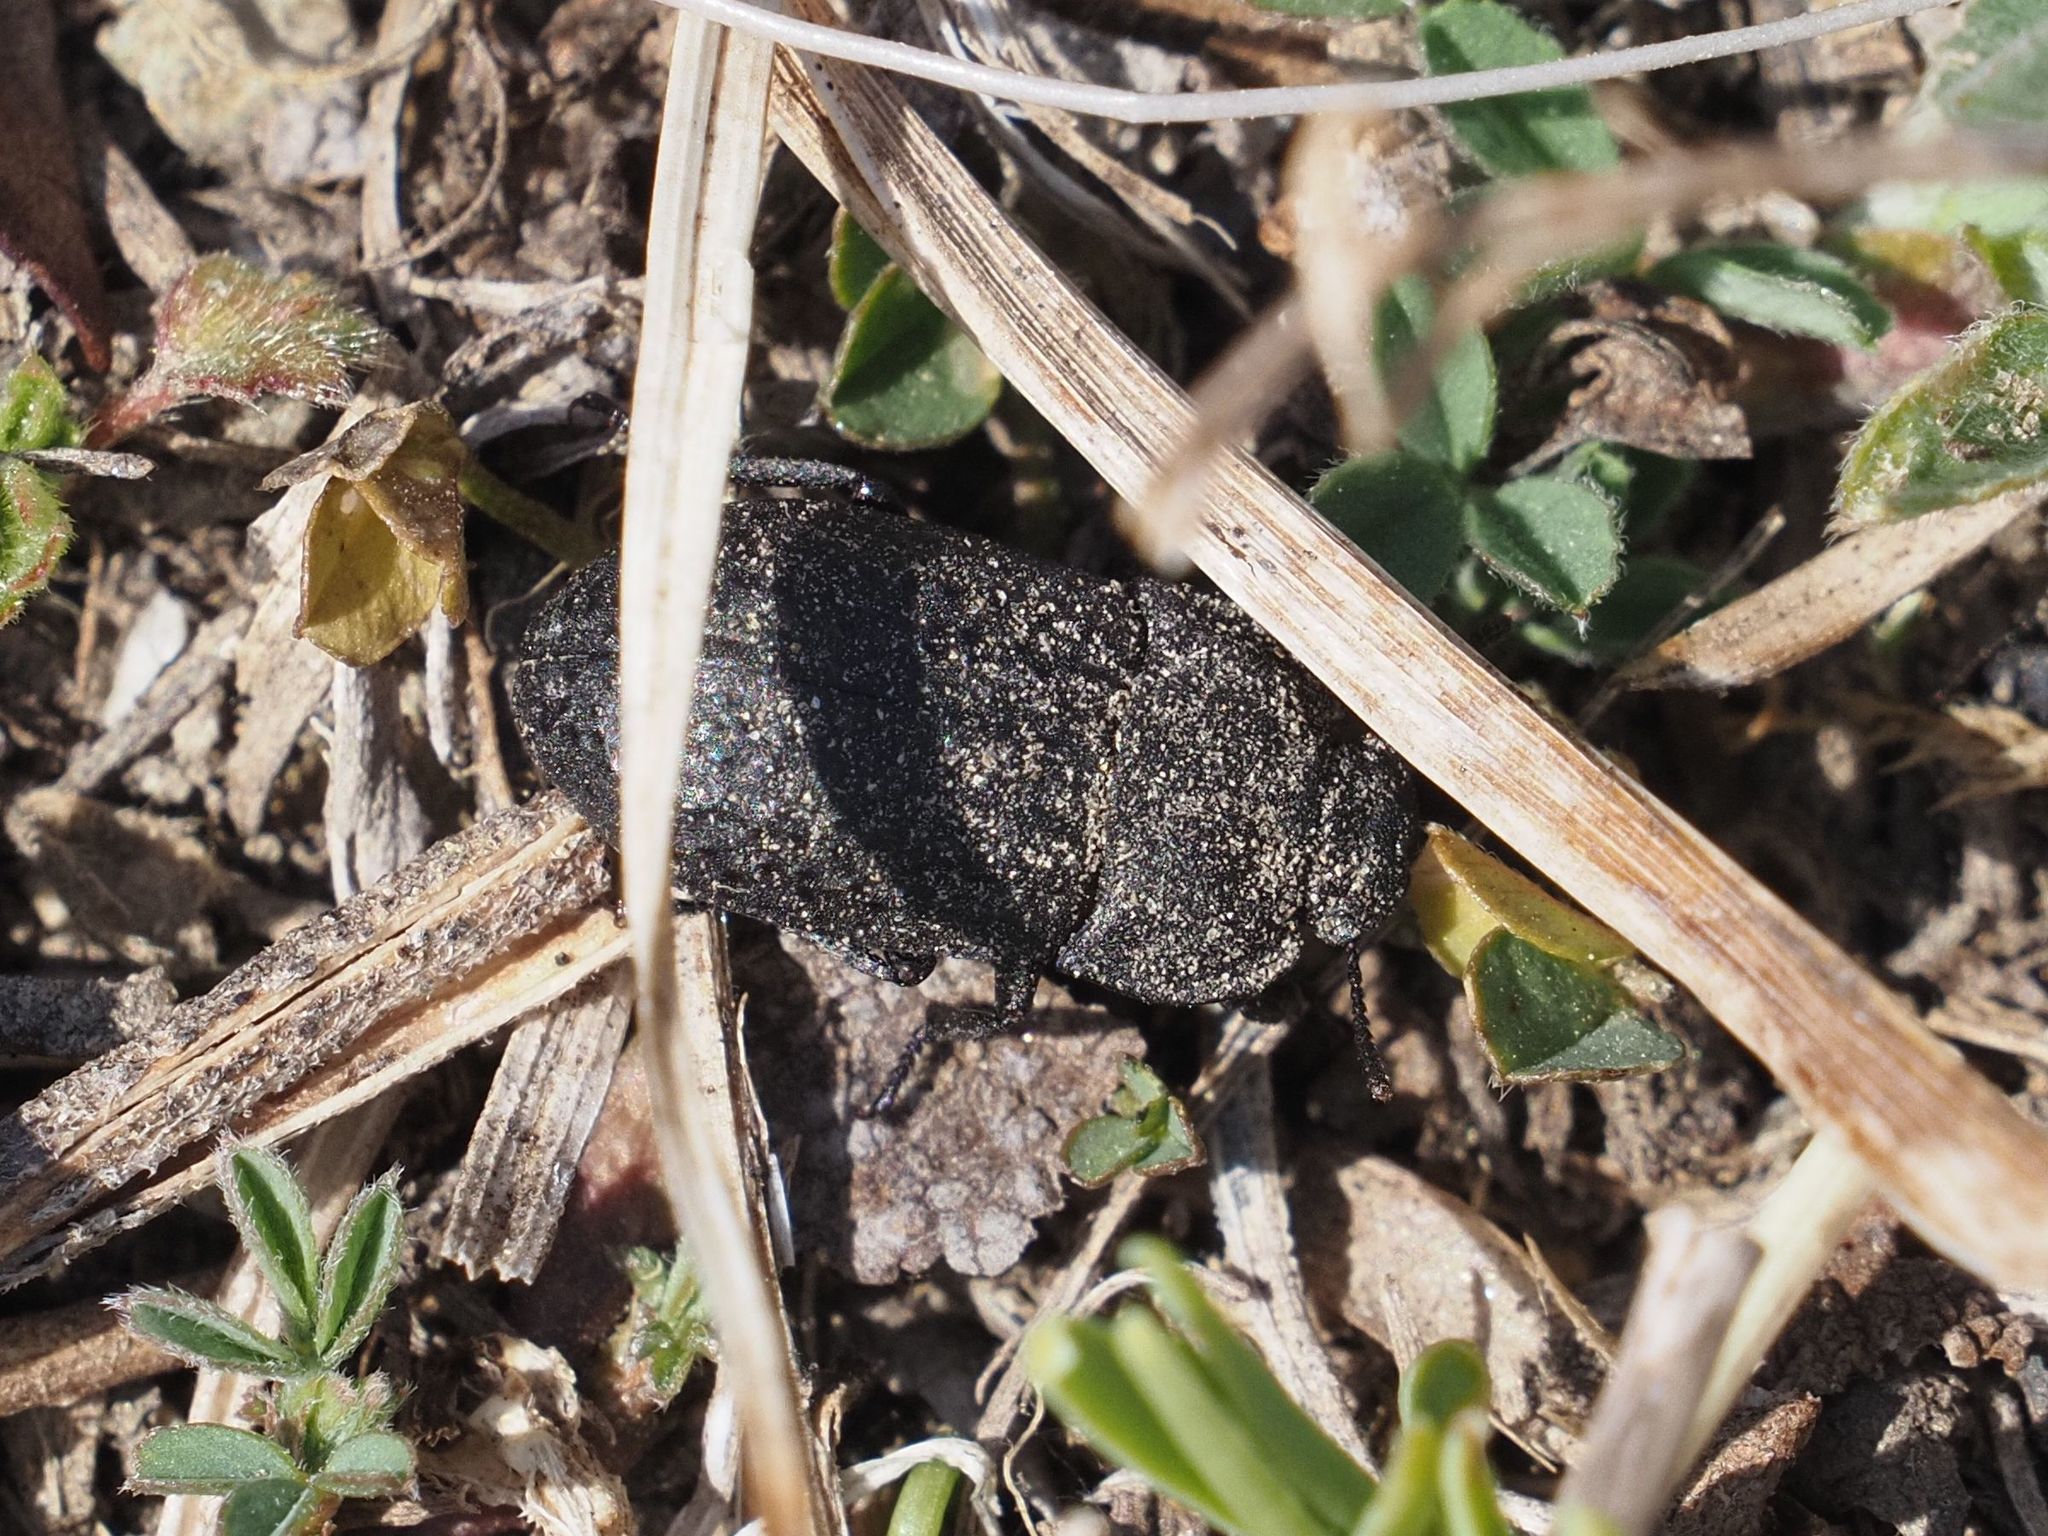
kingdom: Animalia
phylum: Arthropoda
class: Insecta
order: Coleoptera
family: Tenebrionidae
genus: Opatrum
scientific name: Opatrum sabulosum
